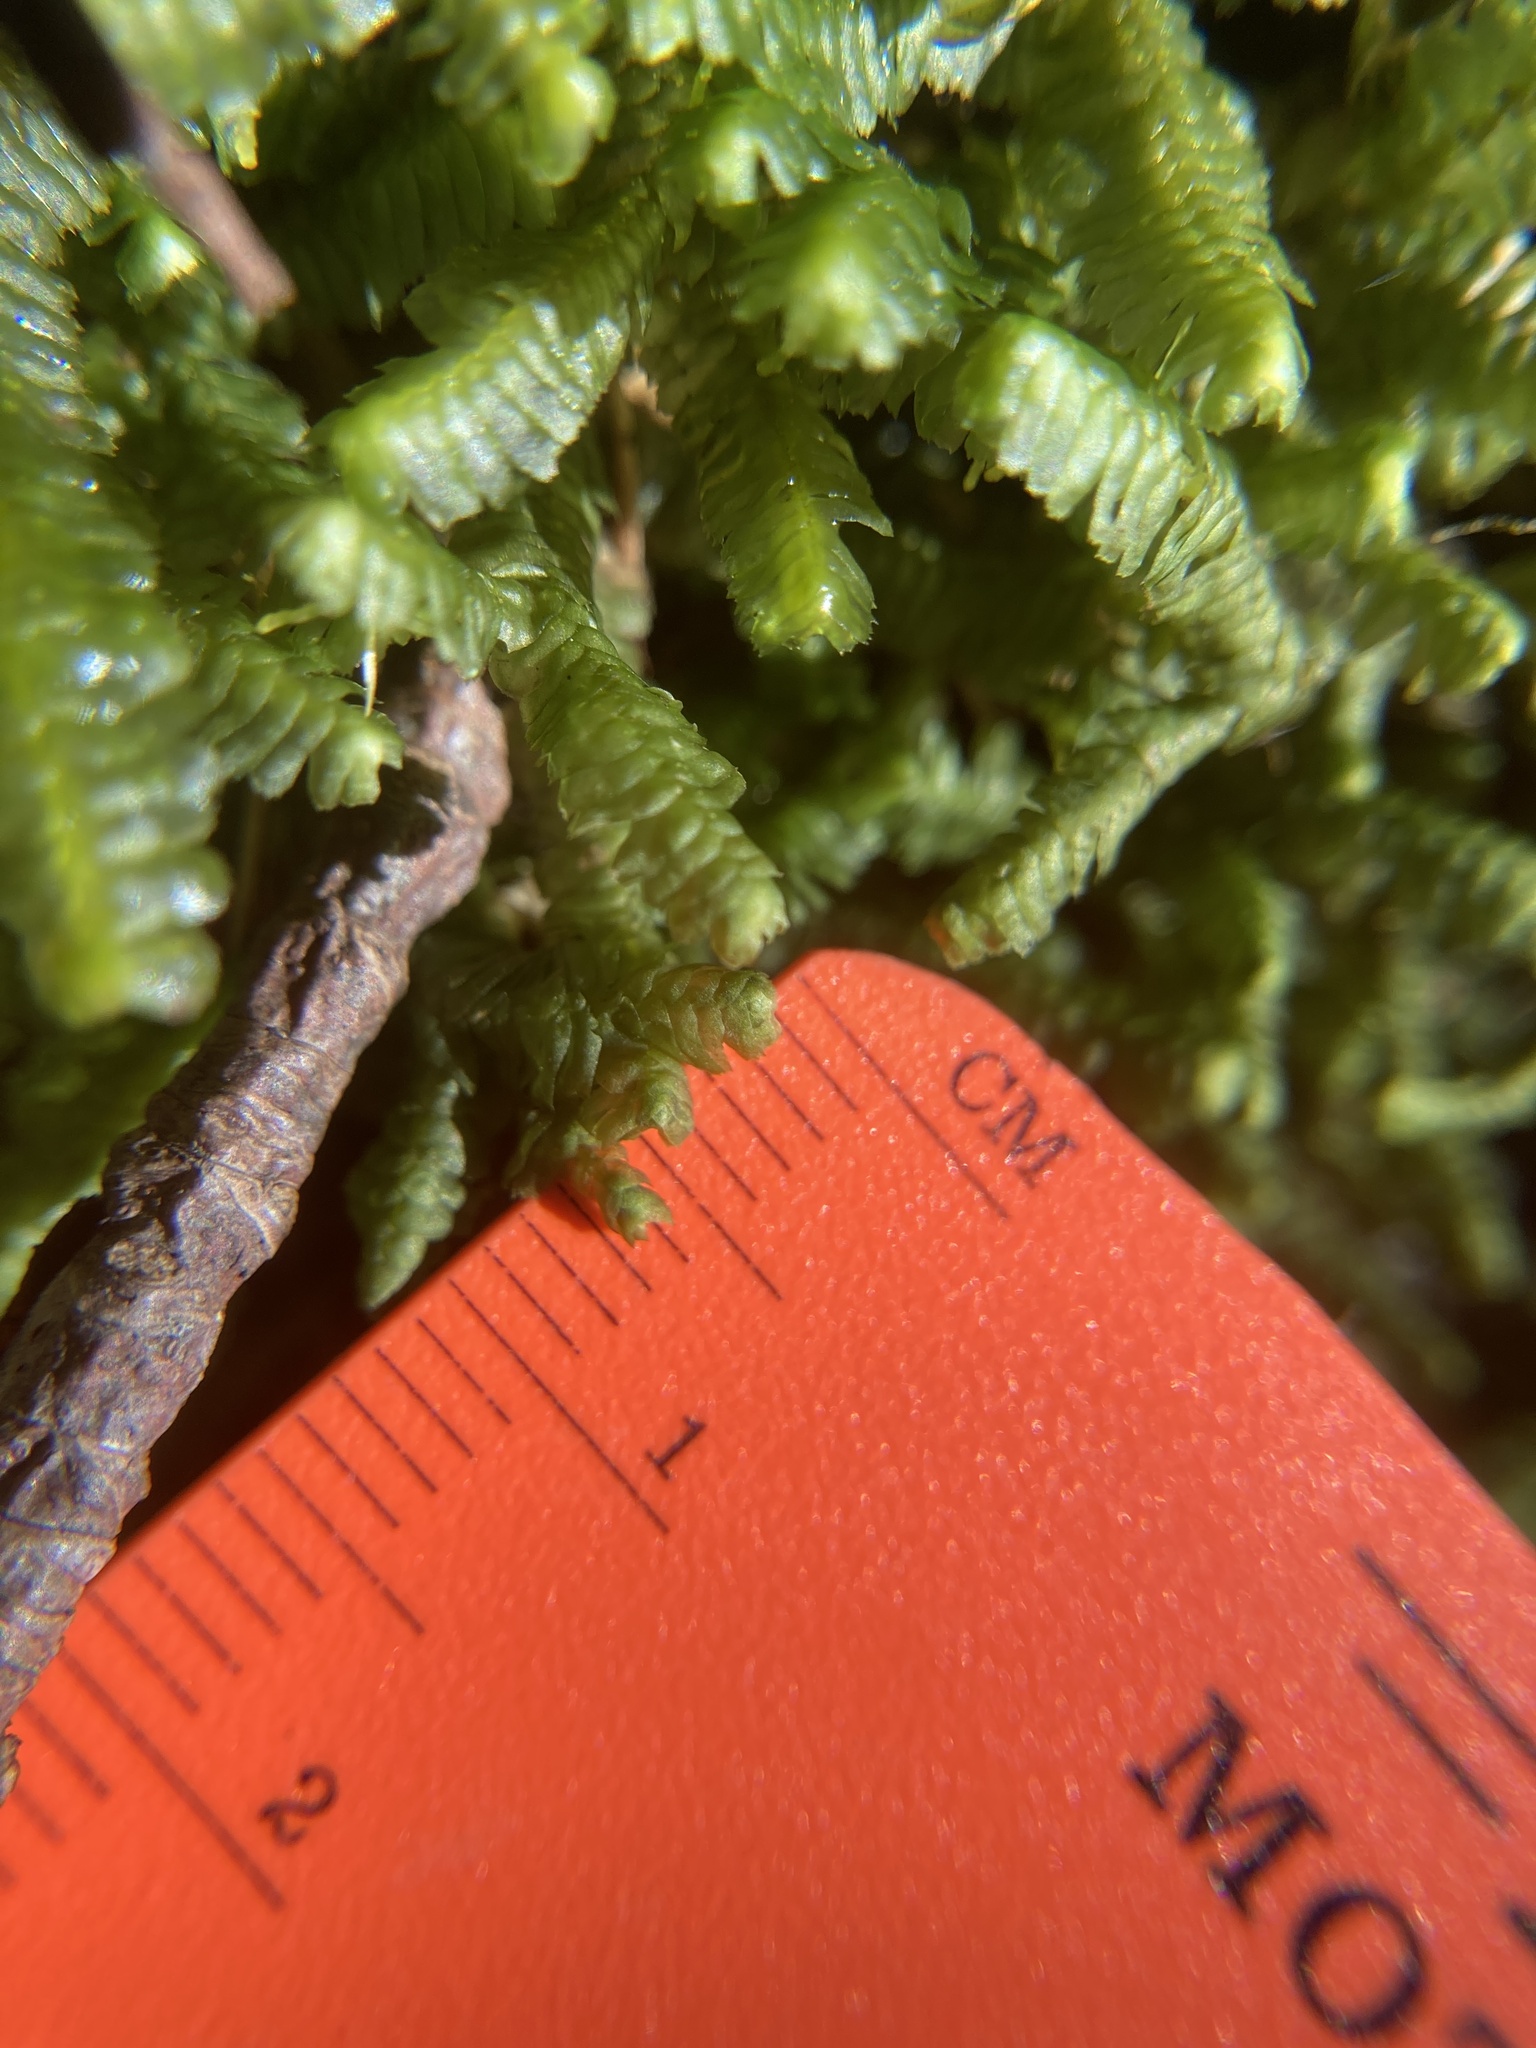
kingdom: Plantae
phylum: Marchantiophyta
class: Jungermanniopsida
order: Jungermanniales
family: Lepidoziaceae
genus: Bazzania
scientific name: Bazzania trilobata
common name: Three-lobed whipwort
